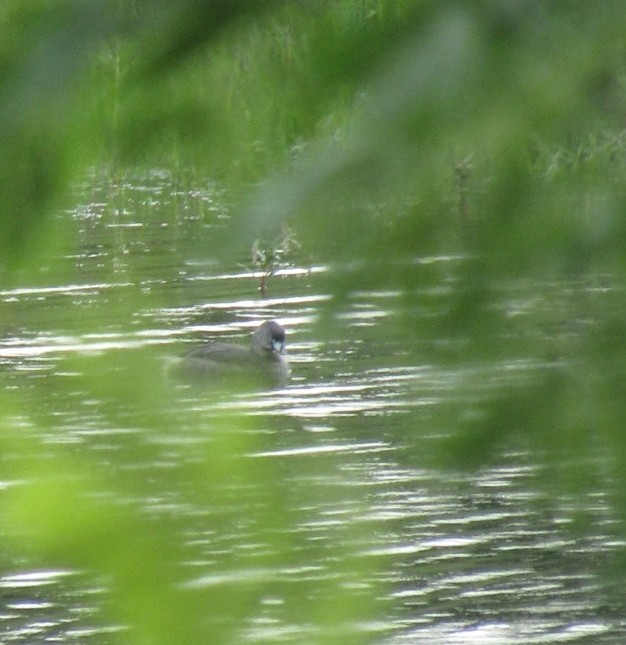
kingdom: Animalia
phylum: Chordata
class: Aves
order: Podicipediformes
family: Podicipedidae
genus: Podilymbus
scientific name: Podilymbus podiceps
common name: Pied-billed grebe
